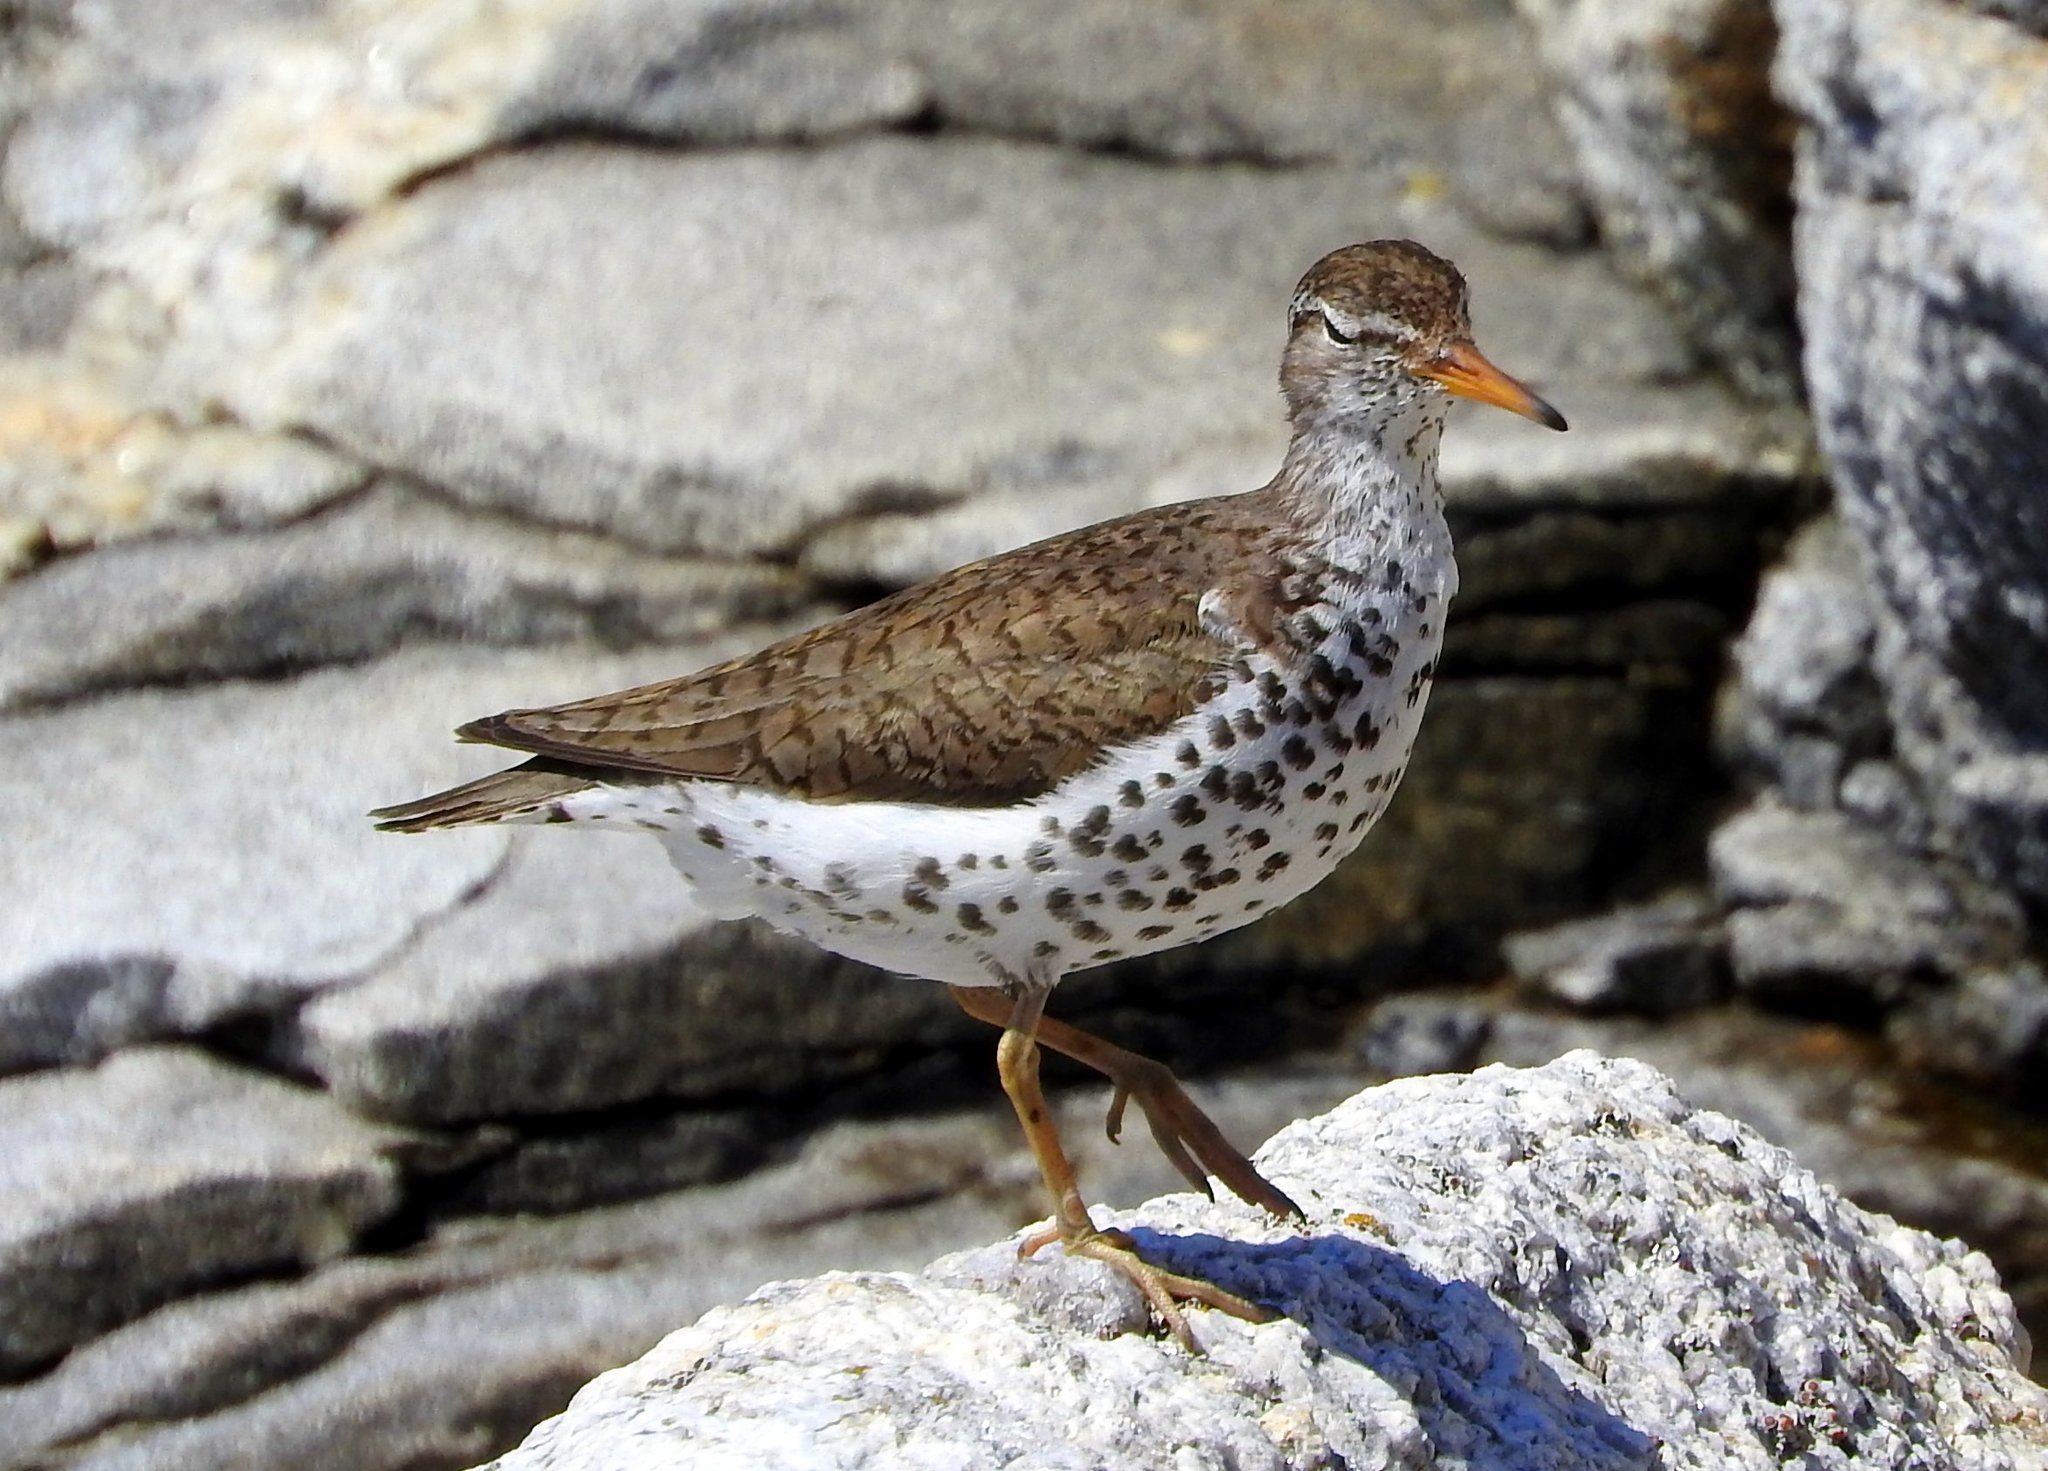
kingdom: Animalia
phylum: Chordata
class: Aves
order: Charadriiformes
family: Scolopacidae
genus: Actitis
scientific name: Actitis macularius
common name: Spotted sandpiper
